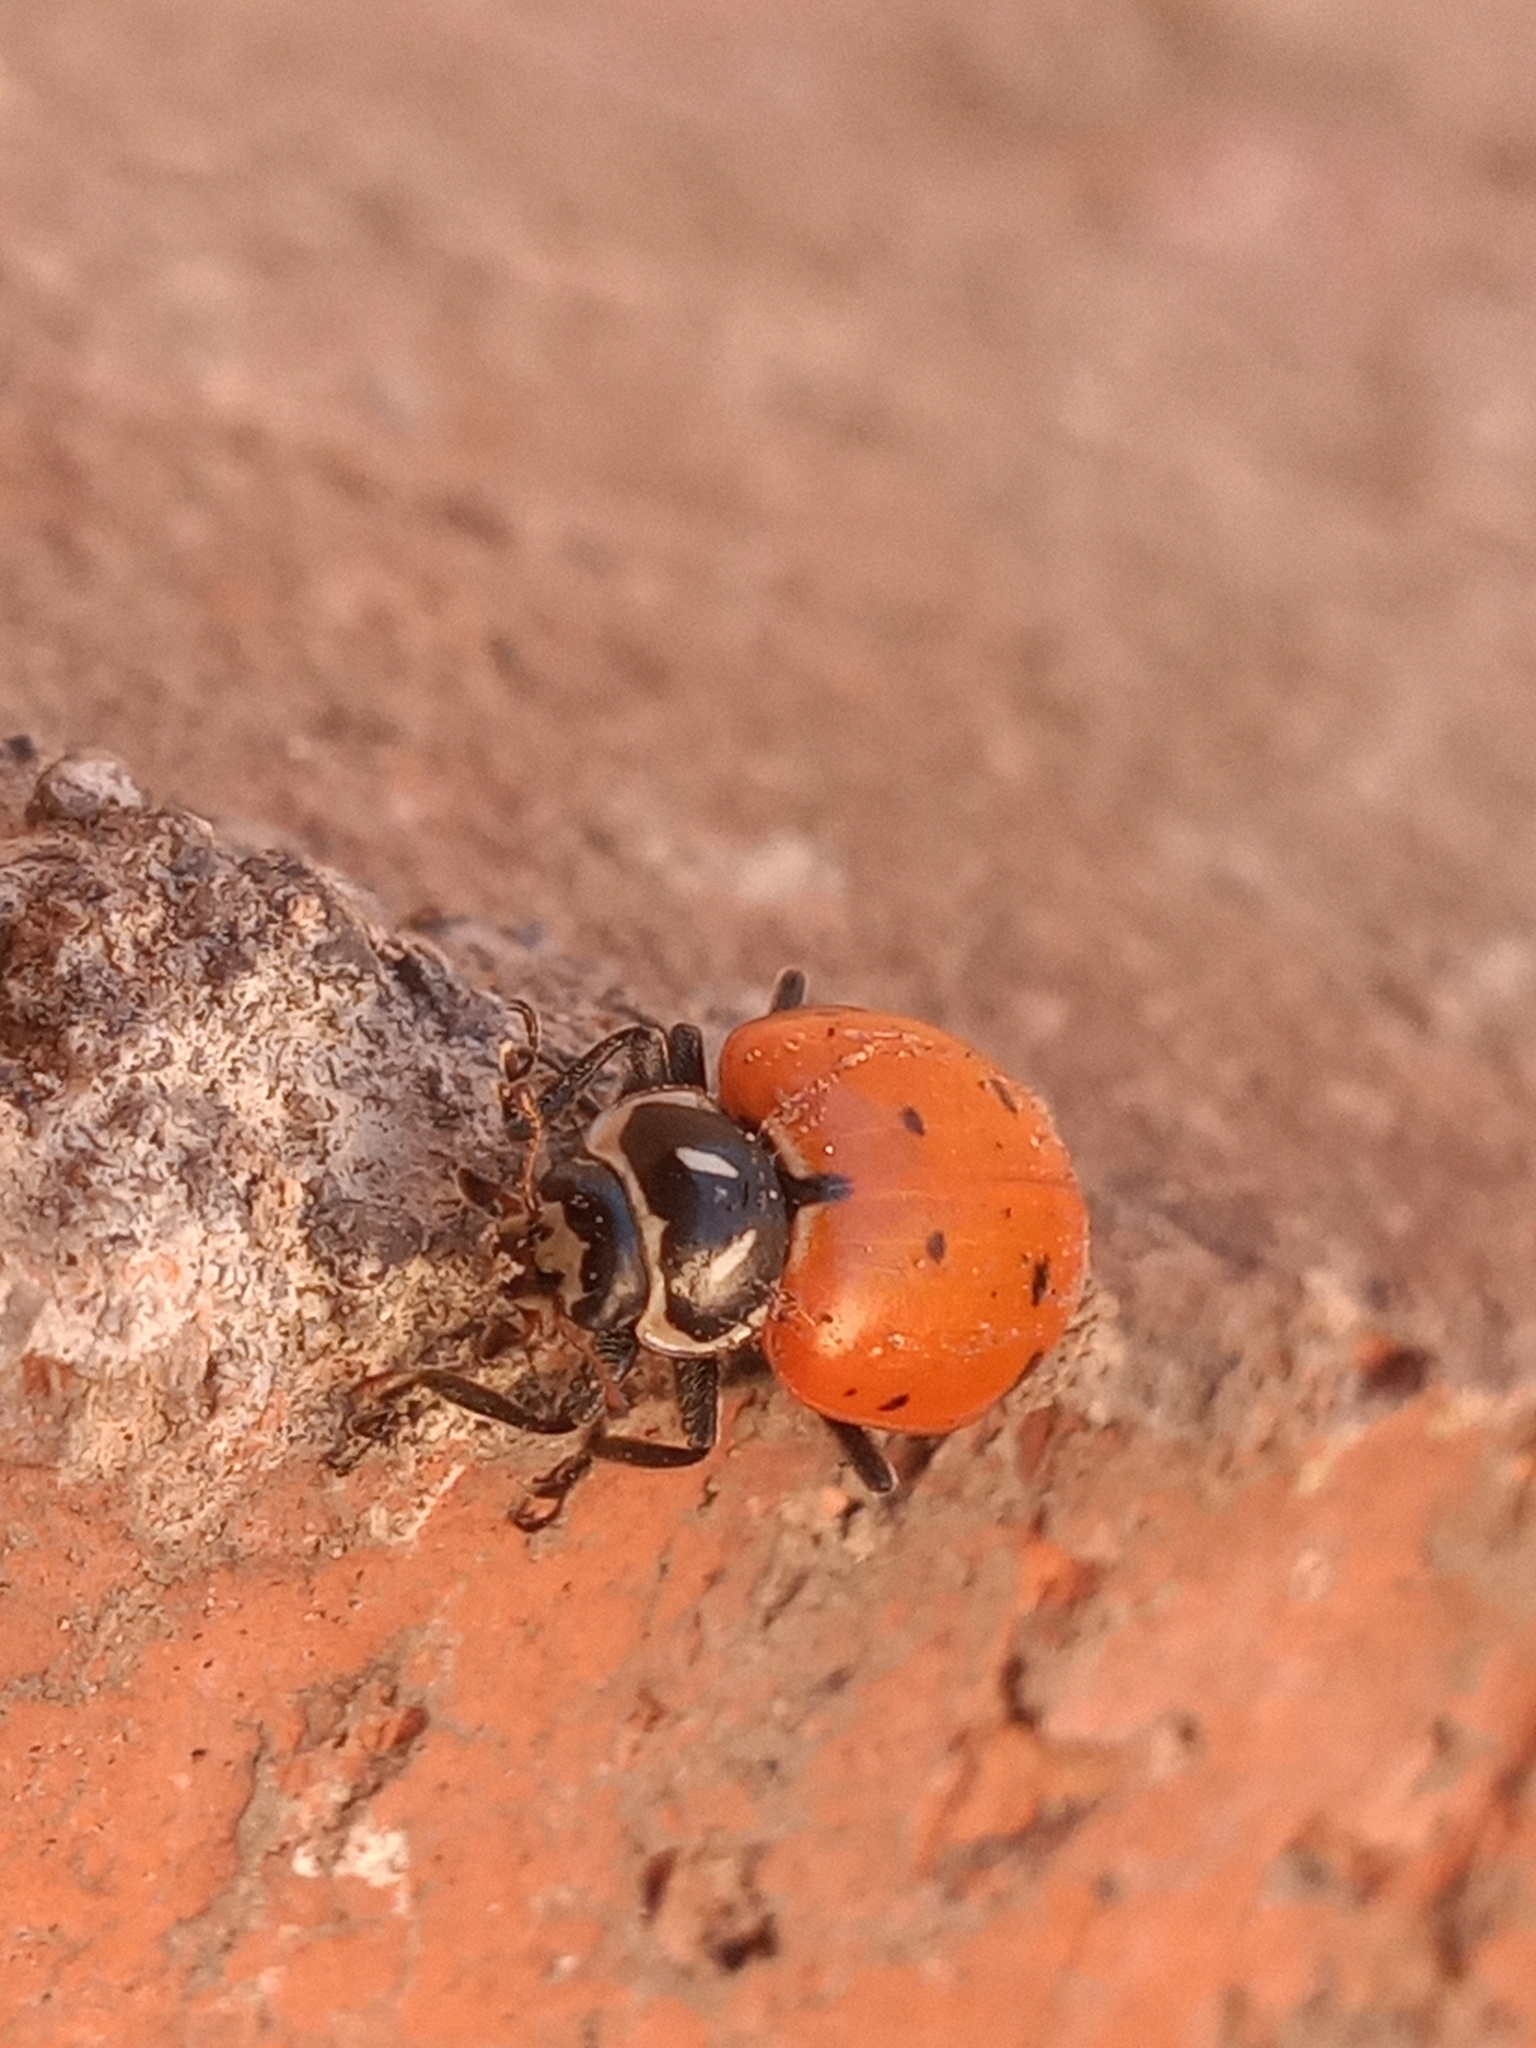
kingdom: Animalia
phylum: Arthropoda
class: Insecta
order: Coleoptera
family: Coccinellidae
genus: Hippodamia
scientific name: Hippodamia convergens
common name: Convergent lady beetle
